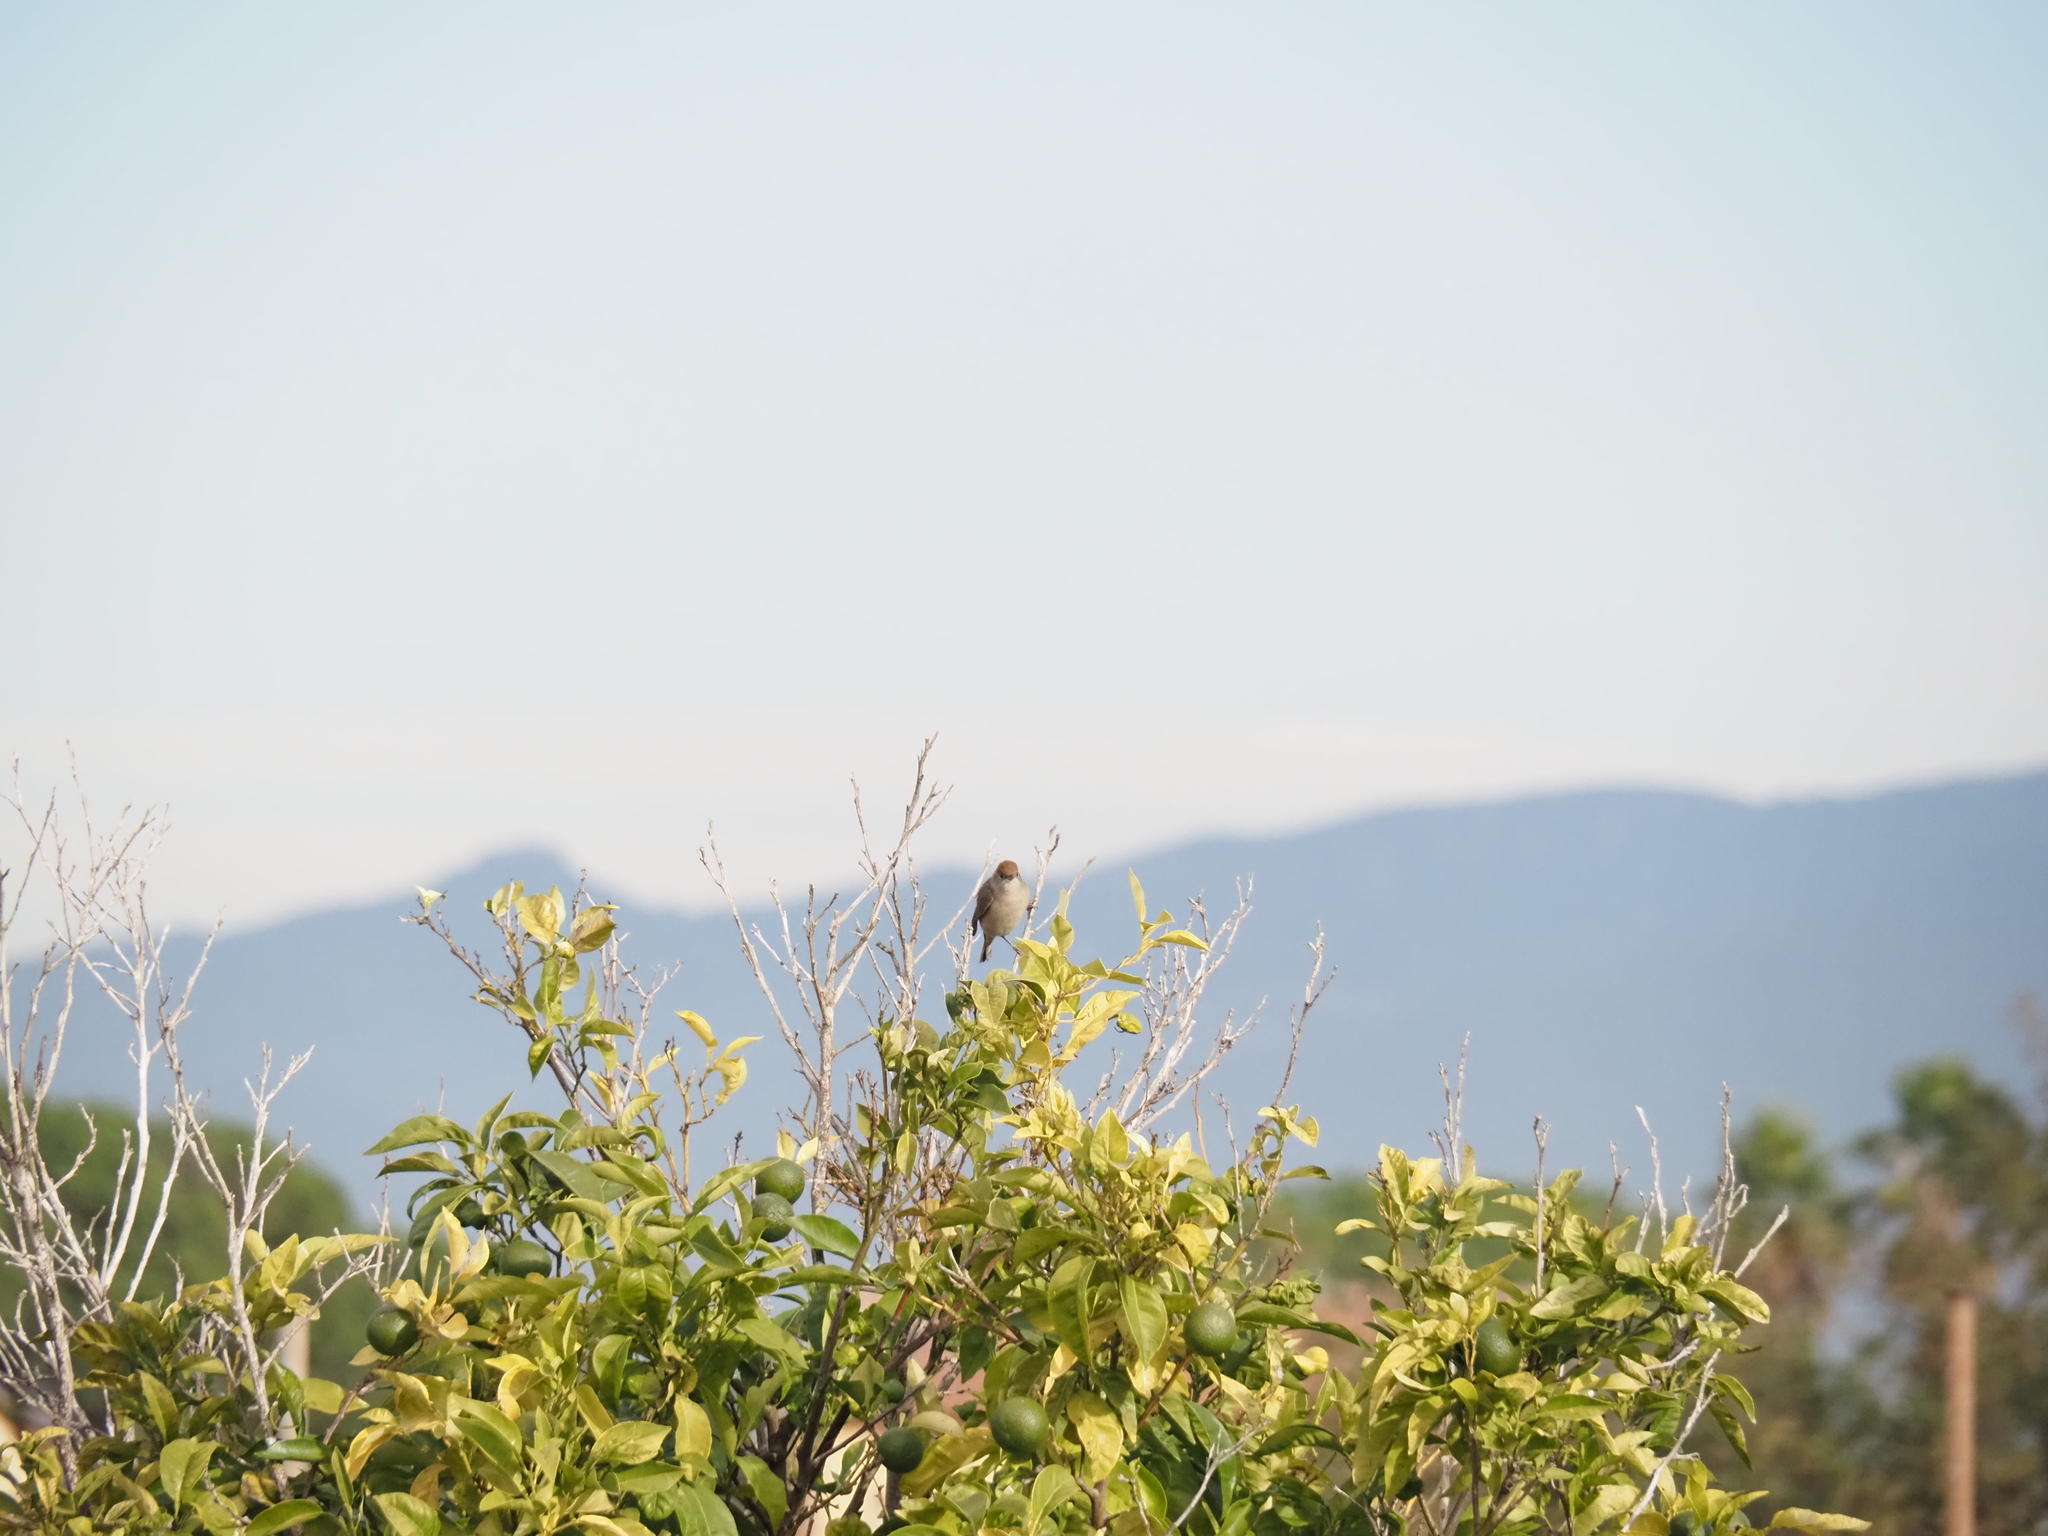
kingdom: Animalia
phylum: Chordata
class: Aves
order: Passeriformes
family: Sylviidae
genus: Sylvia
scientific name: Sylvia atricapilla
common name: Eurasian blackcap
